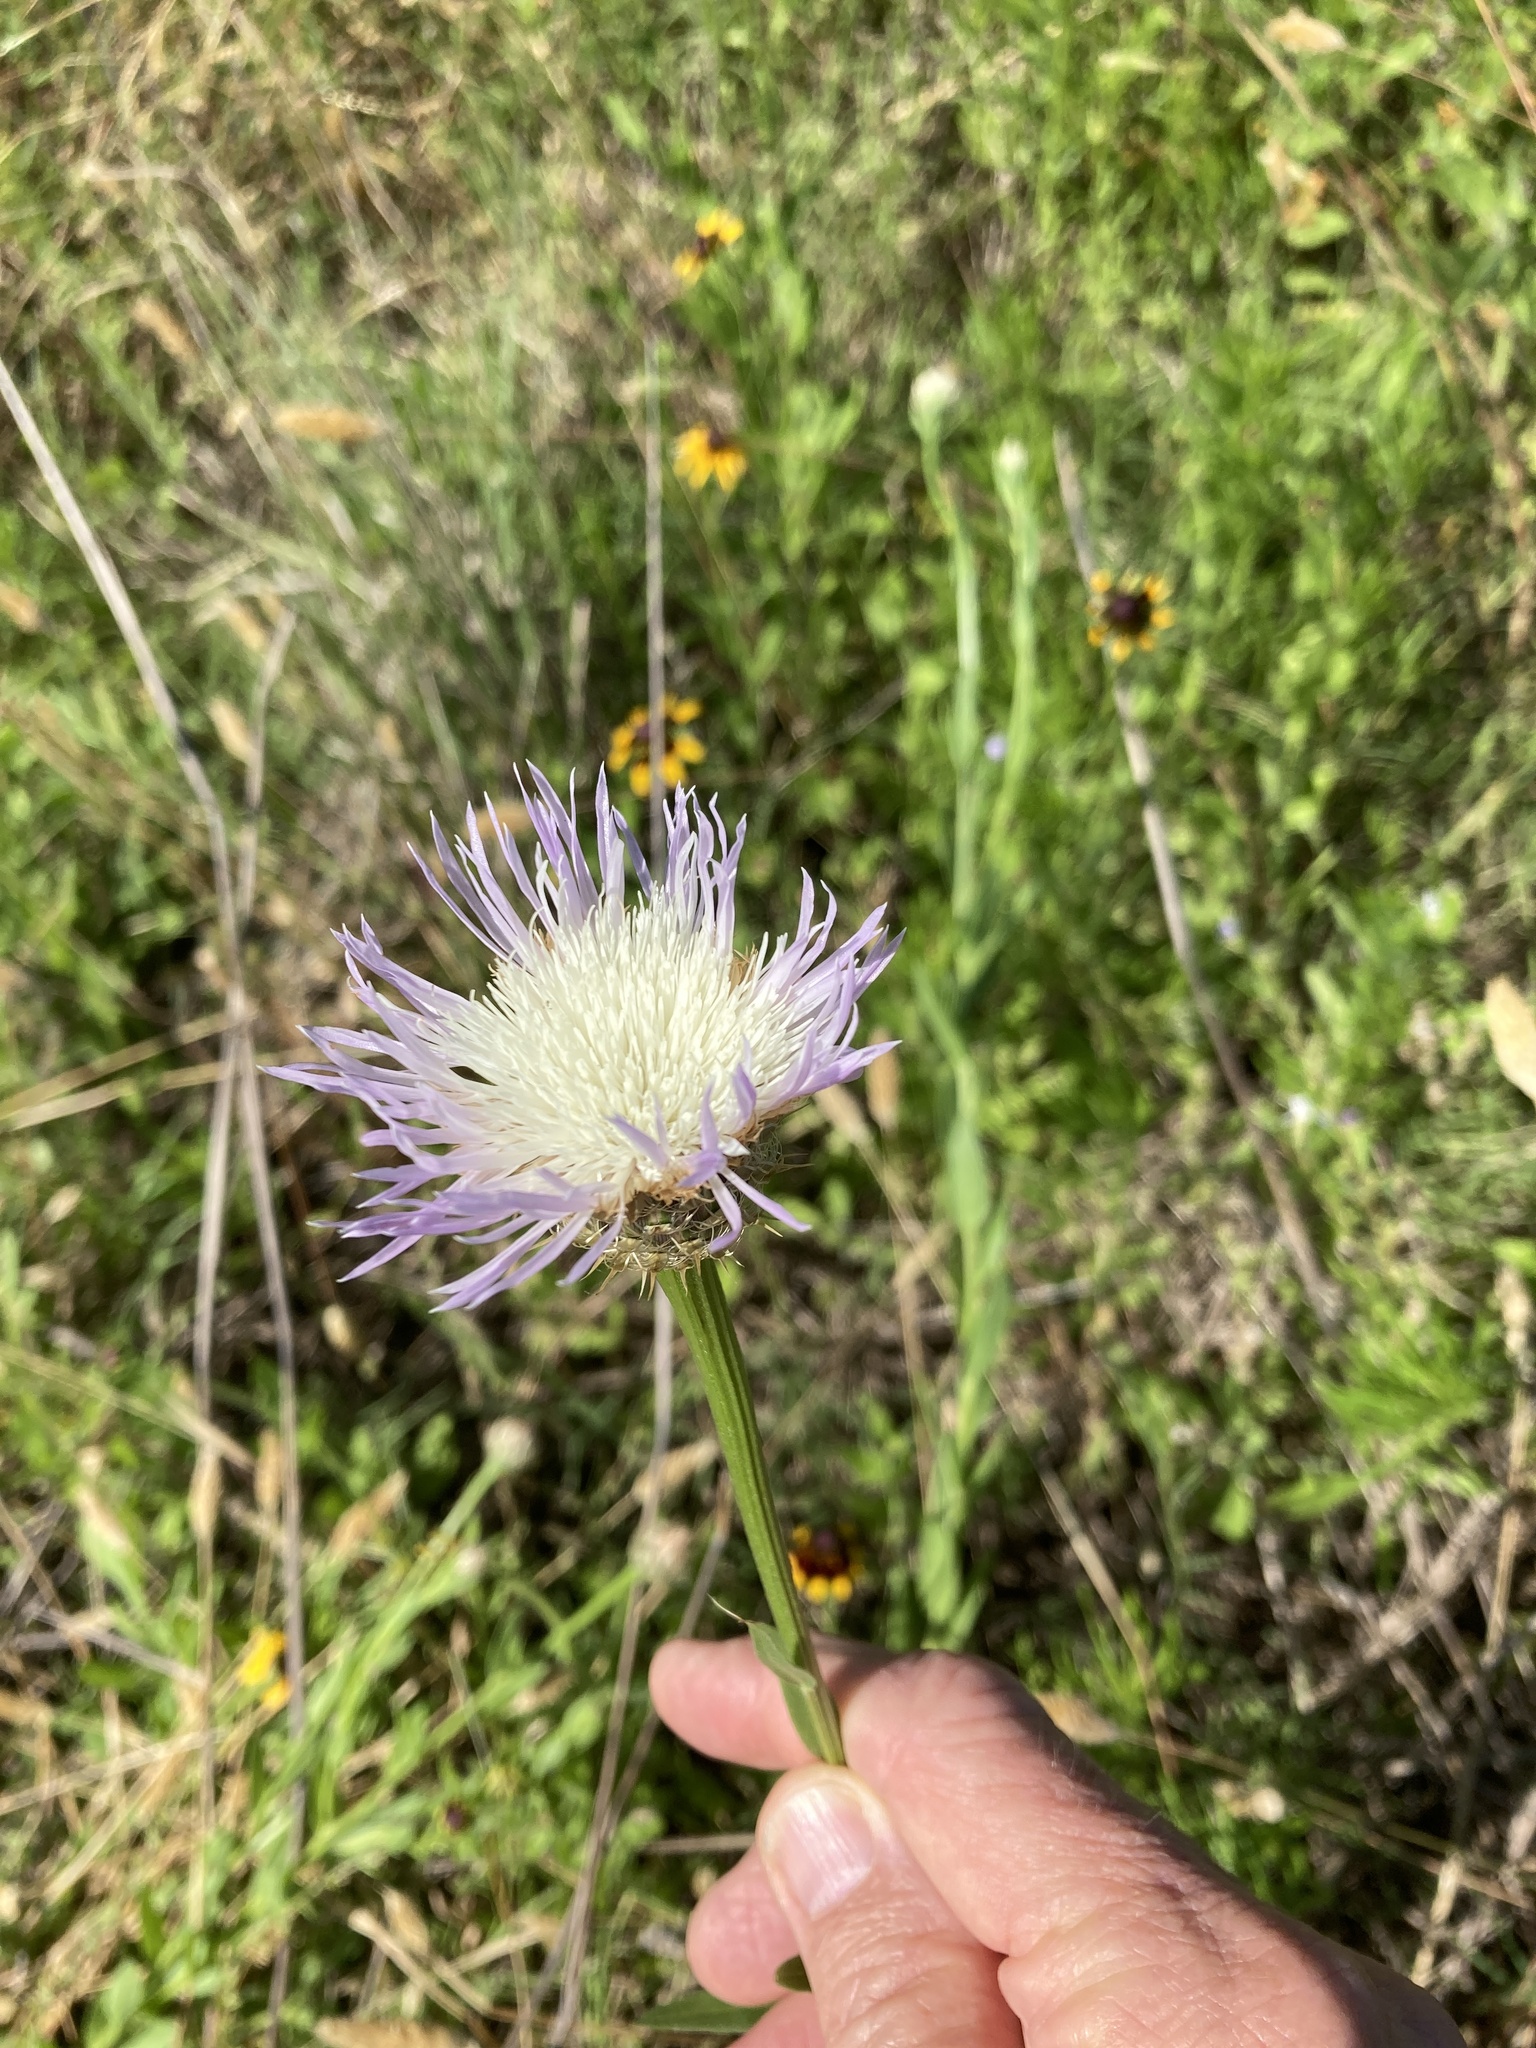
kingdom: Plantae
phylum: Tracheophyta
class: Magnoliopsida
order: Asterales
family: Asteraceae
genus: Plectocephalus
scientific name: Plectocephalus americanus
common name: American basket-flower
